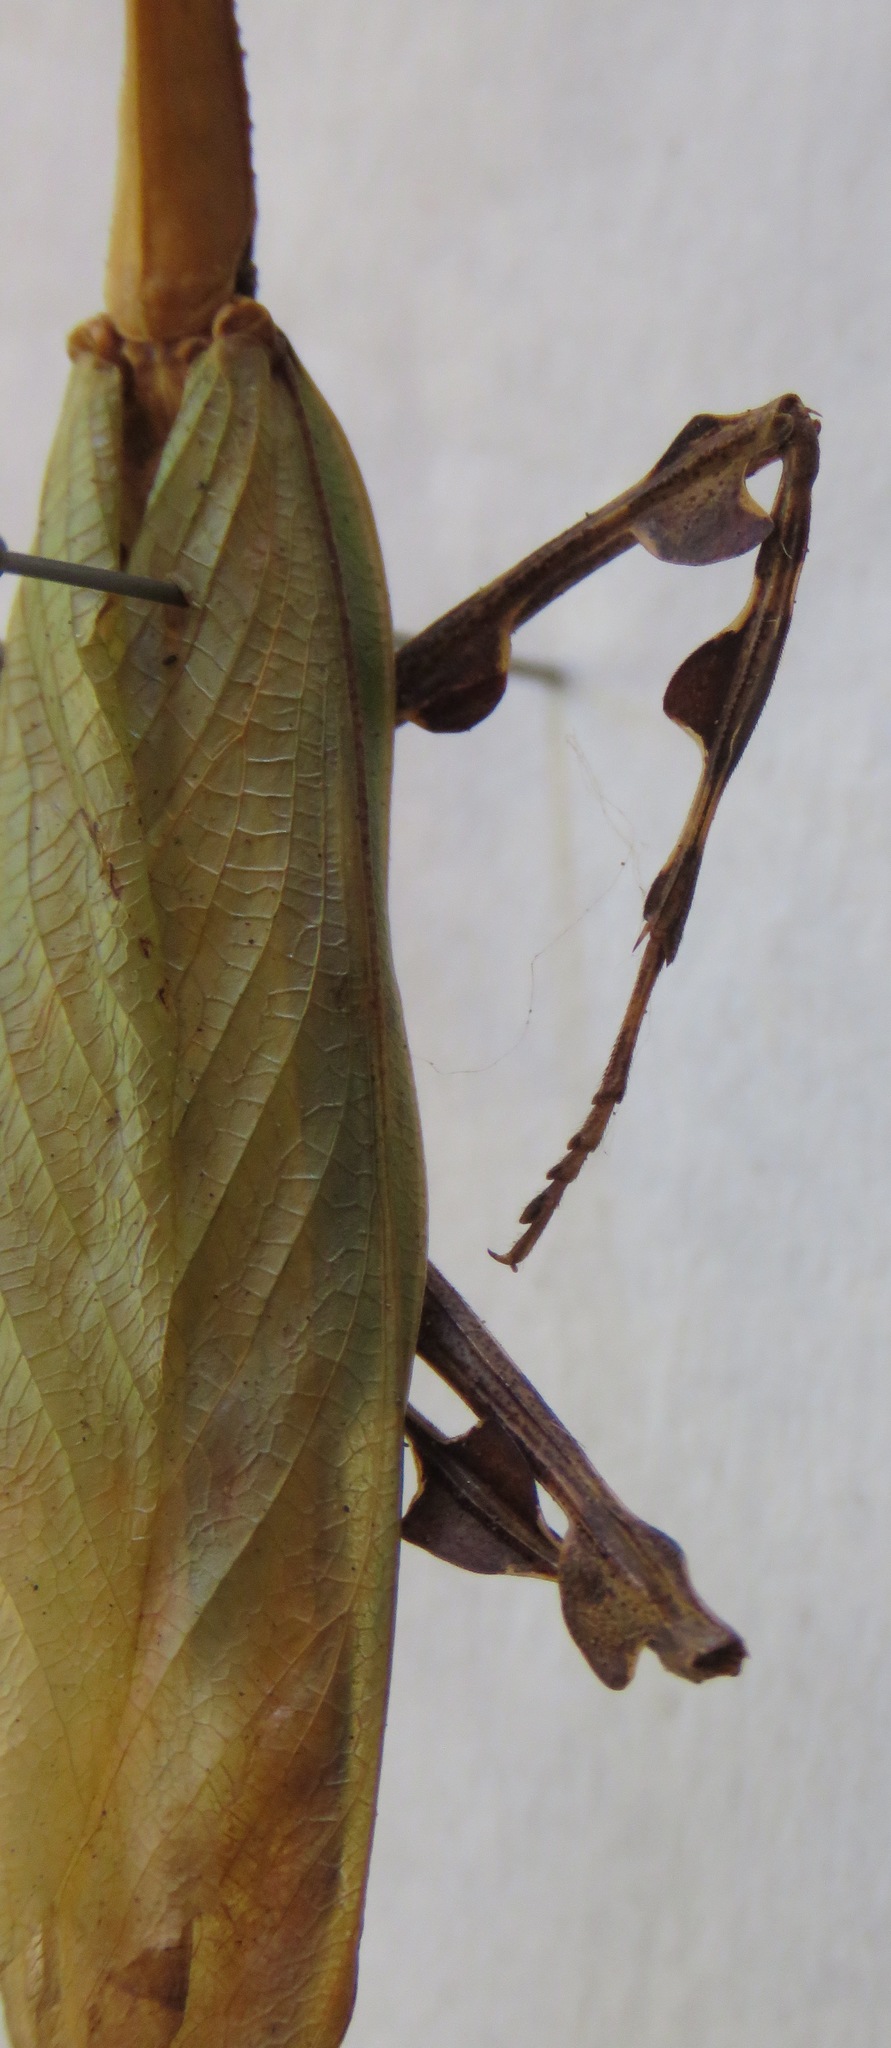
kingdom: Animalia
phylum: Arthropoda
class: Insecta
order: Mantodea
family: Mantidae
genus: Vates
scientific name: Vates pectinicornis
